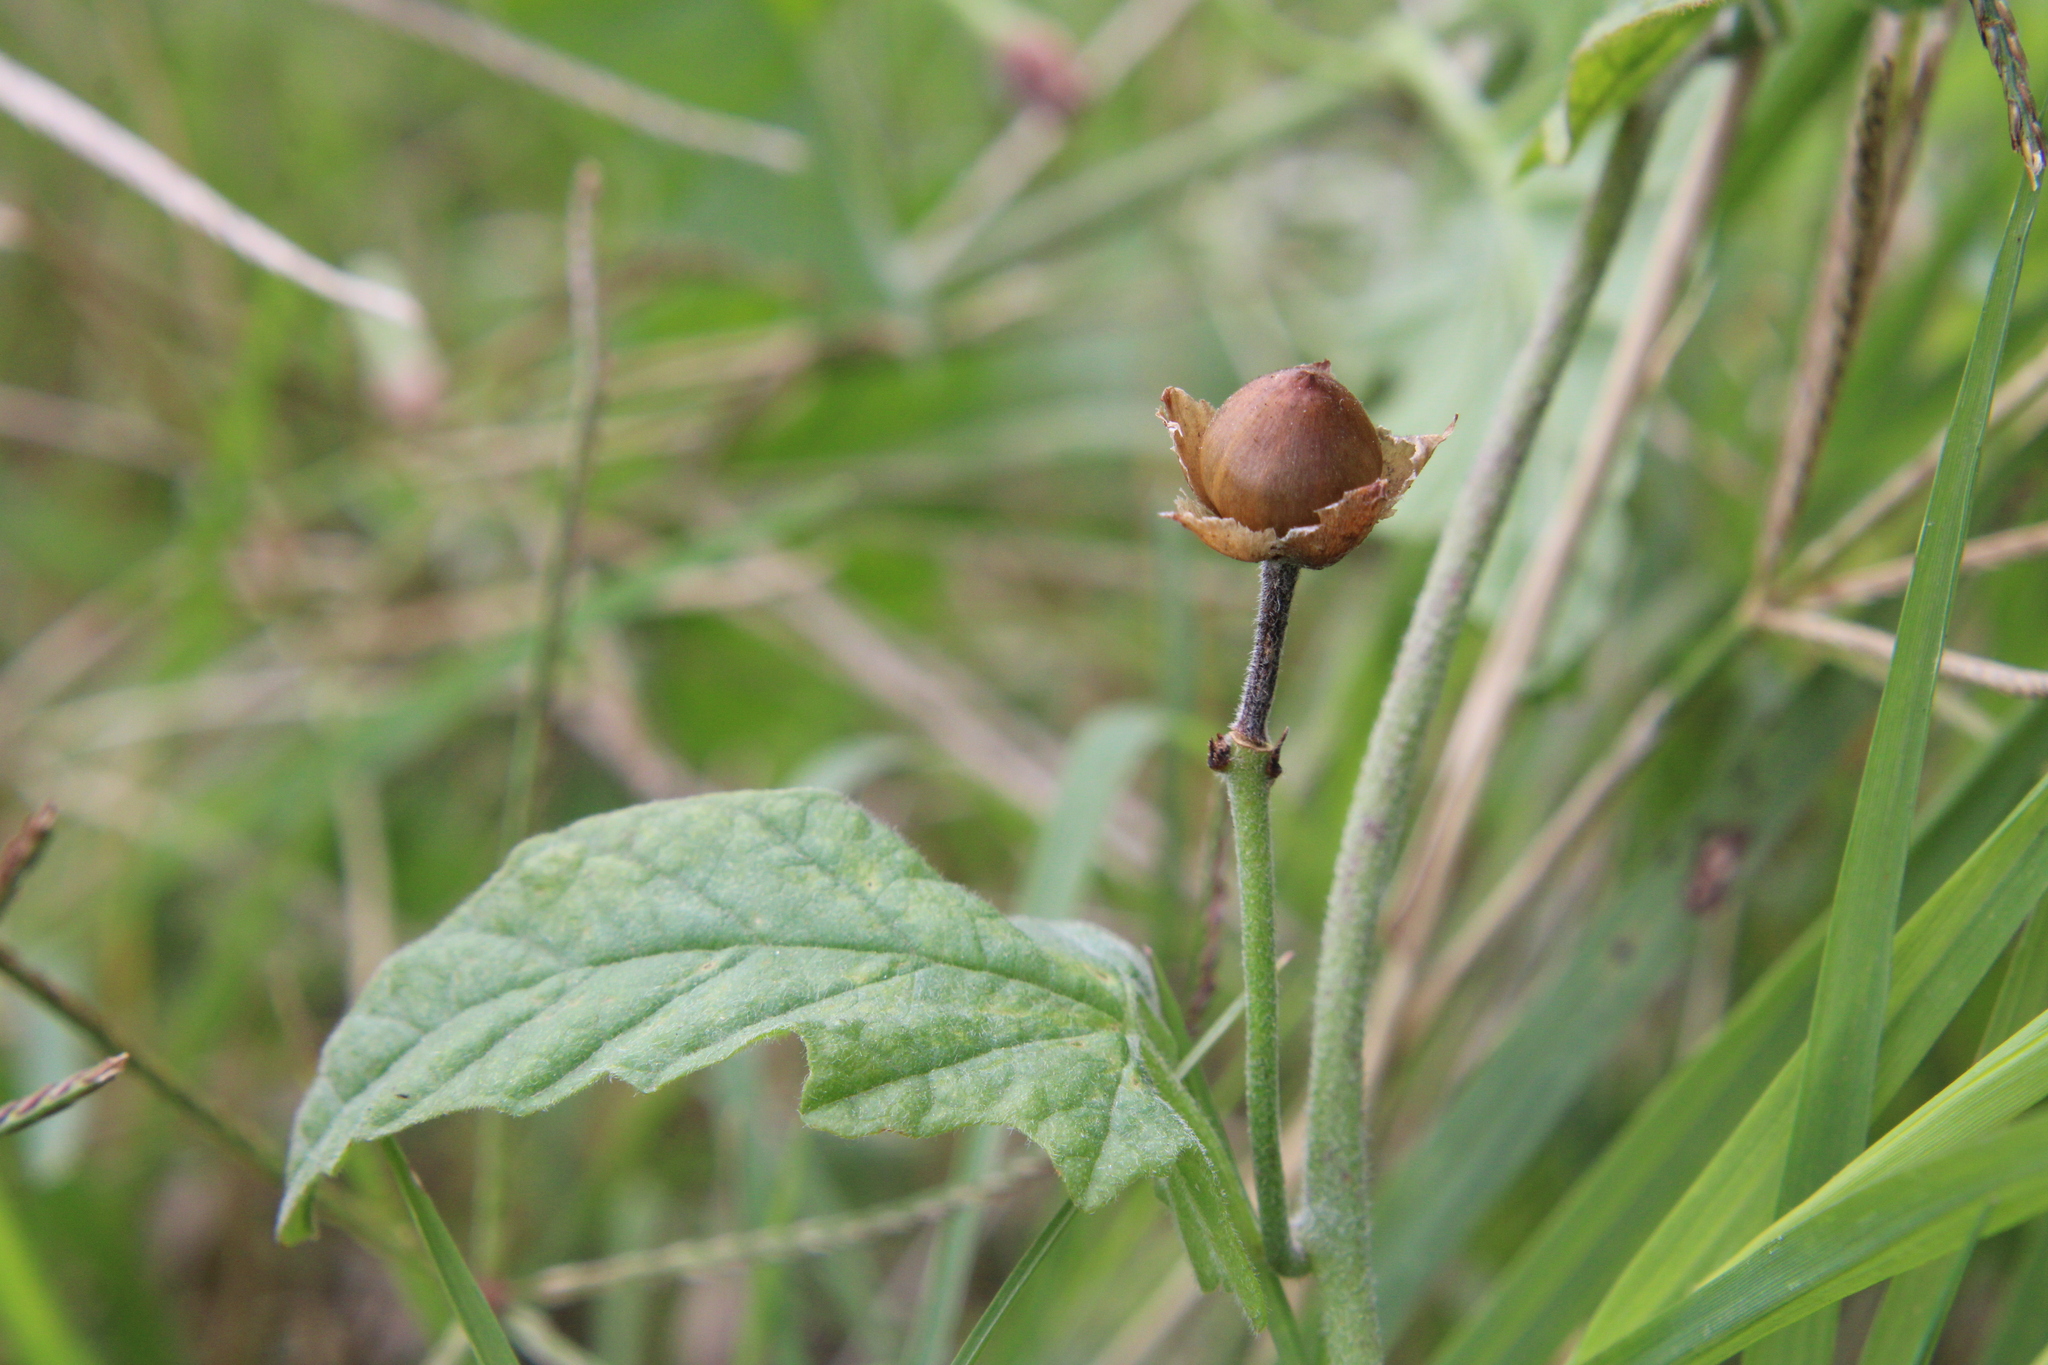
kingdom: Plantae
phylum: Tracheophyta
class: Magnoliopsida
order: Solanales
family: Convolvulaceae
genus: Convolvulus
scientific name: Convolvulus crenatifolius
